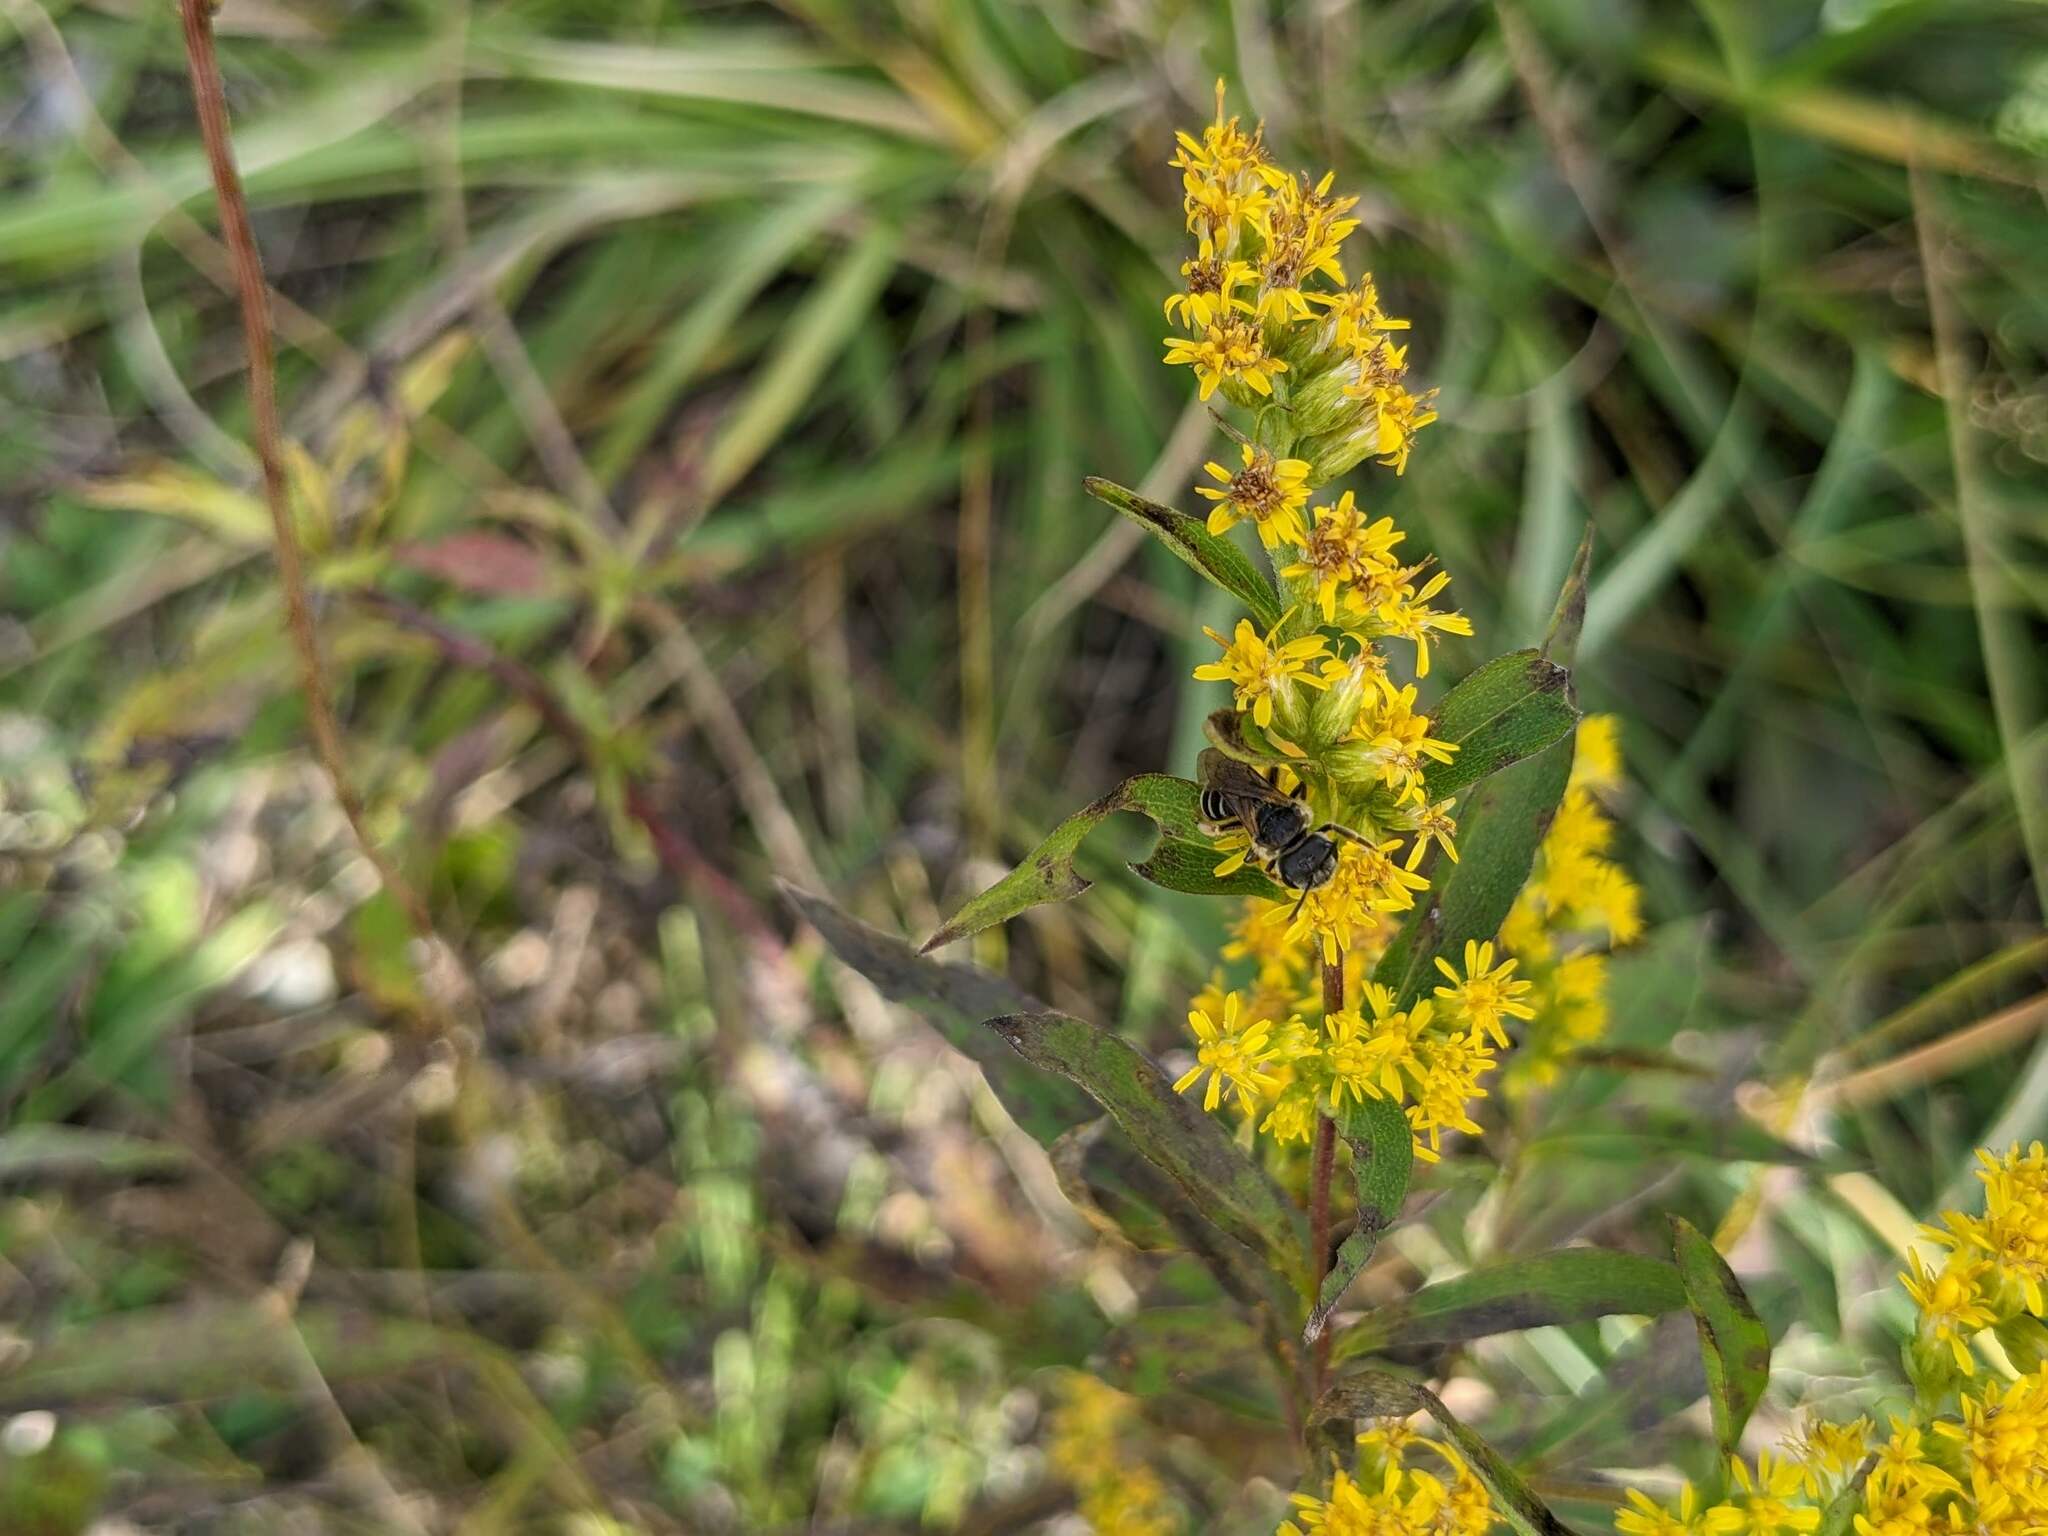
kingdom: Animalia
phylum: Arthropoda
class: Insecta
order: Hymenoptera
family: Halictidae
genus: Halictus
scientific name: Halictus ligatus
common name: Ligated furrow bee
